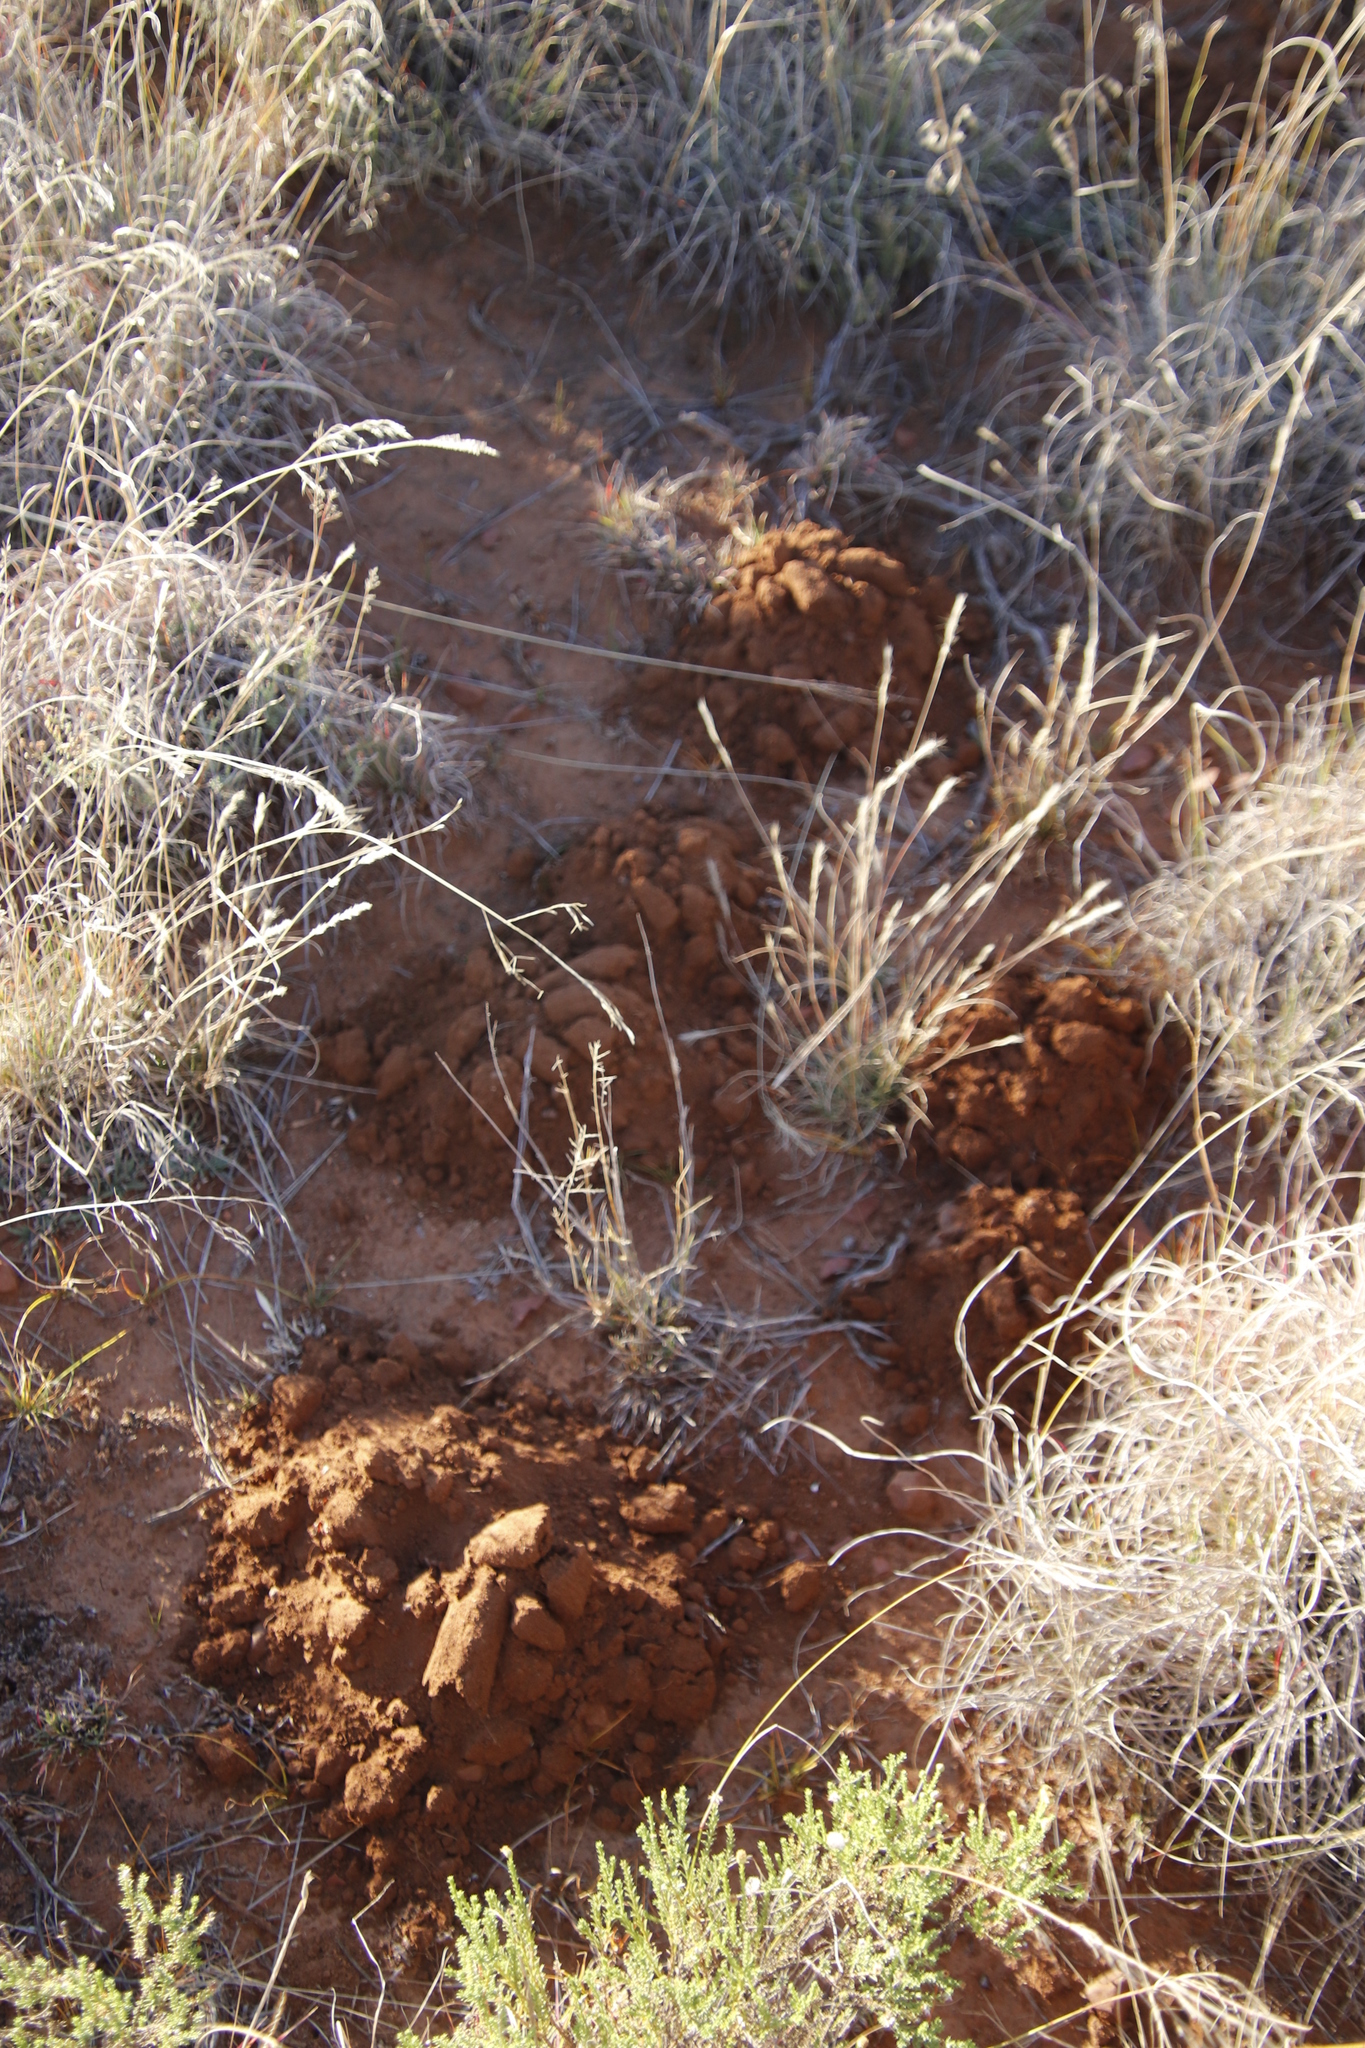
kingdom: Animalia
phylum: Chordata
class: Mammalia
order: Rodentia
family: Bathyergidae
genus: Cryptomys
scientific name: Cryptomys hottentotus
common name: Southern african mole-rat
